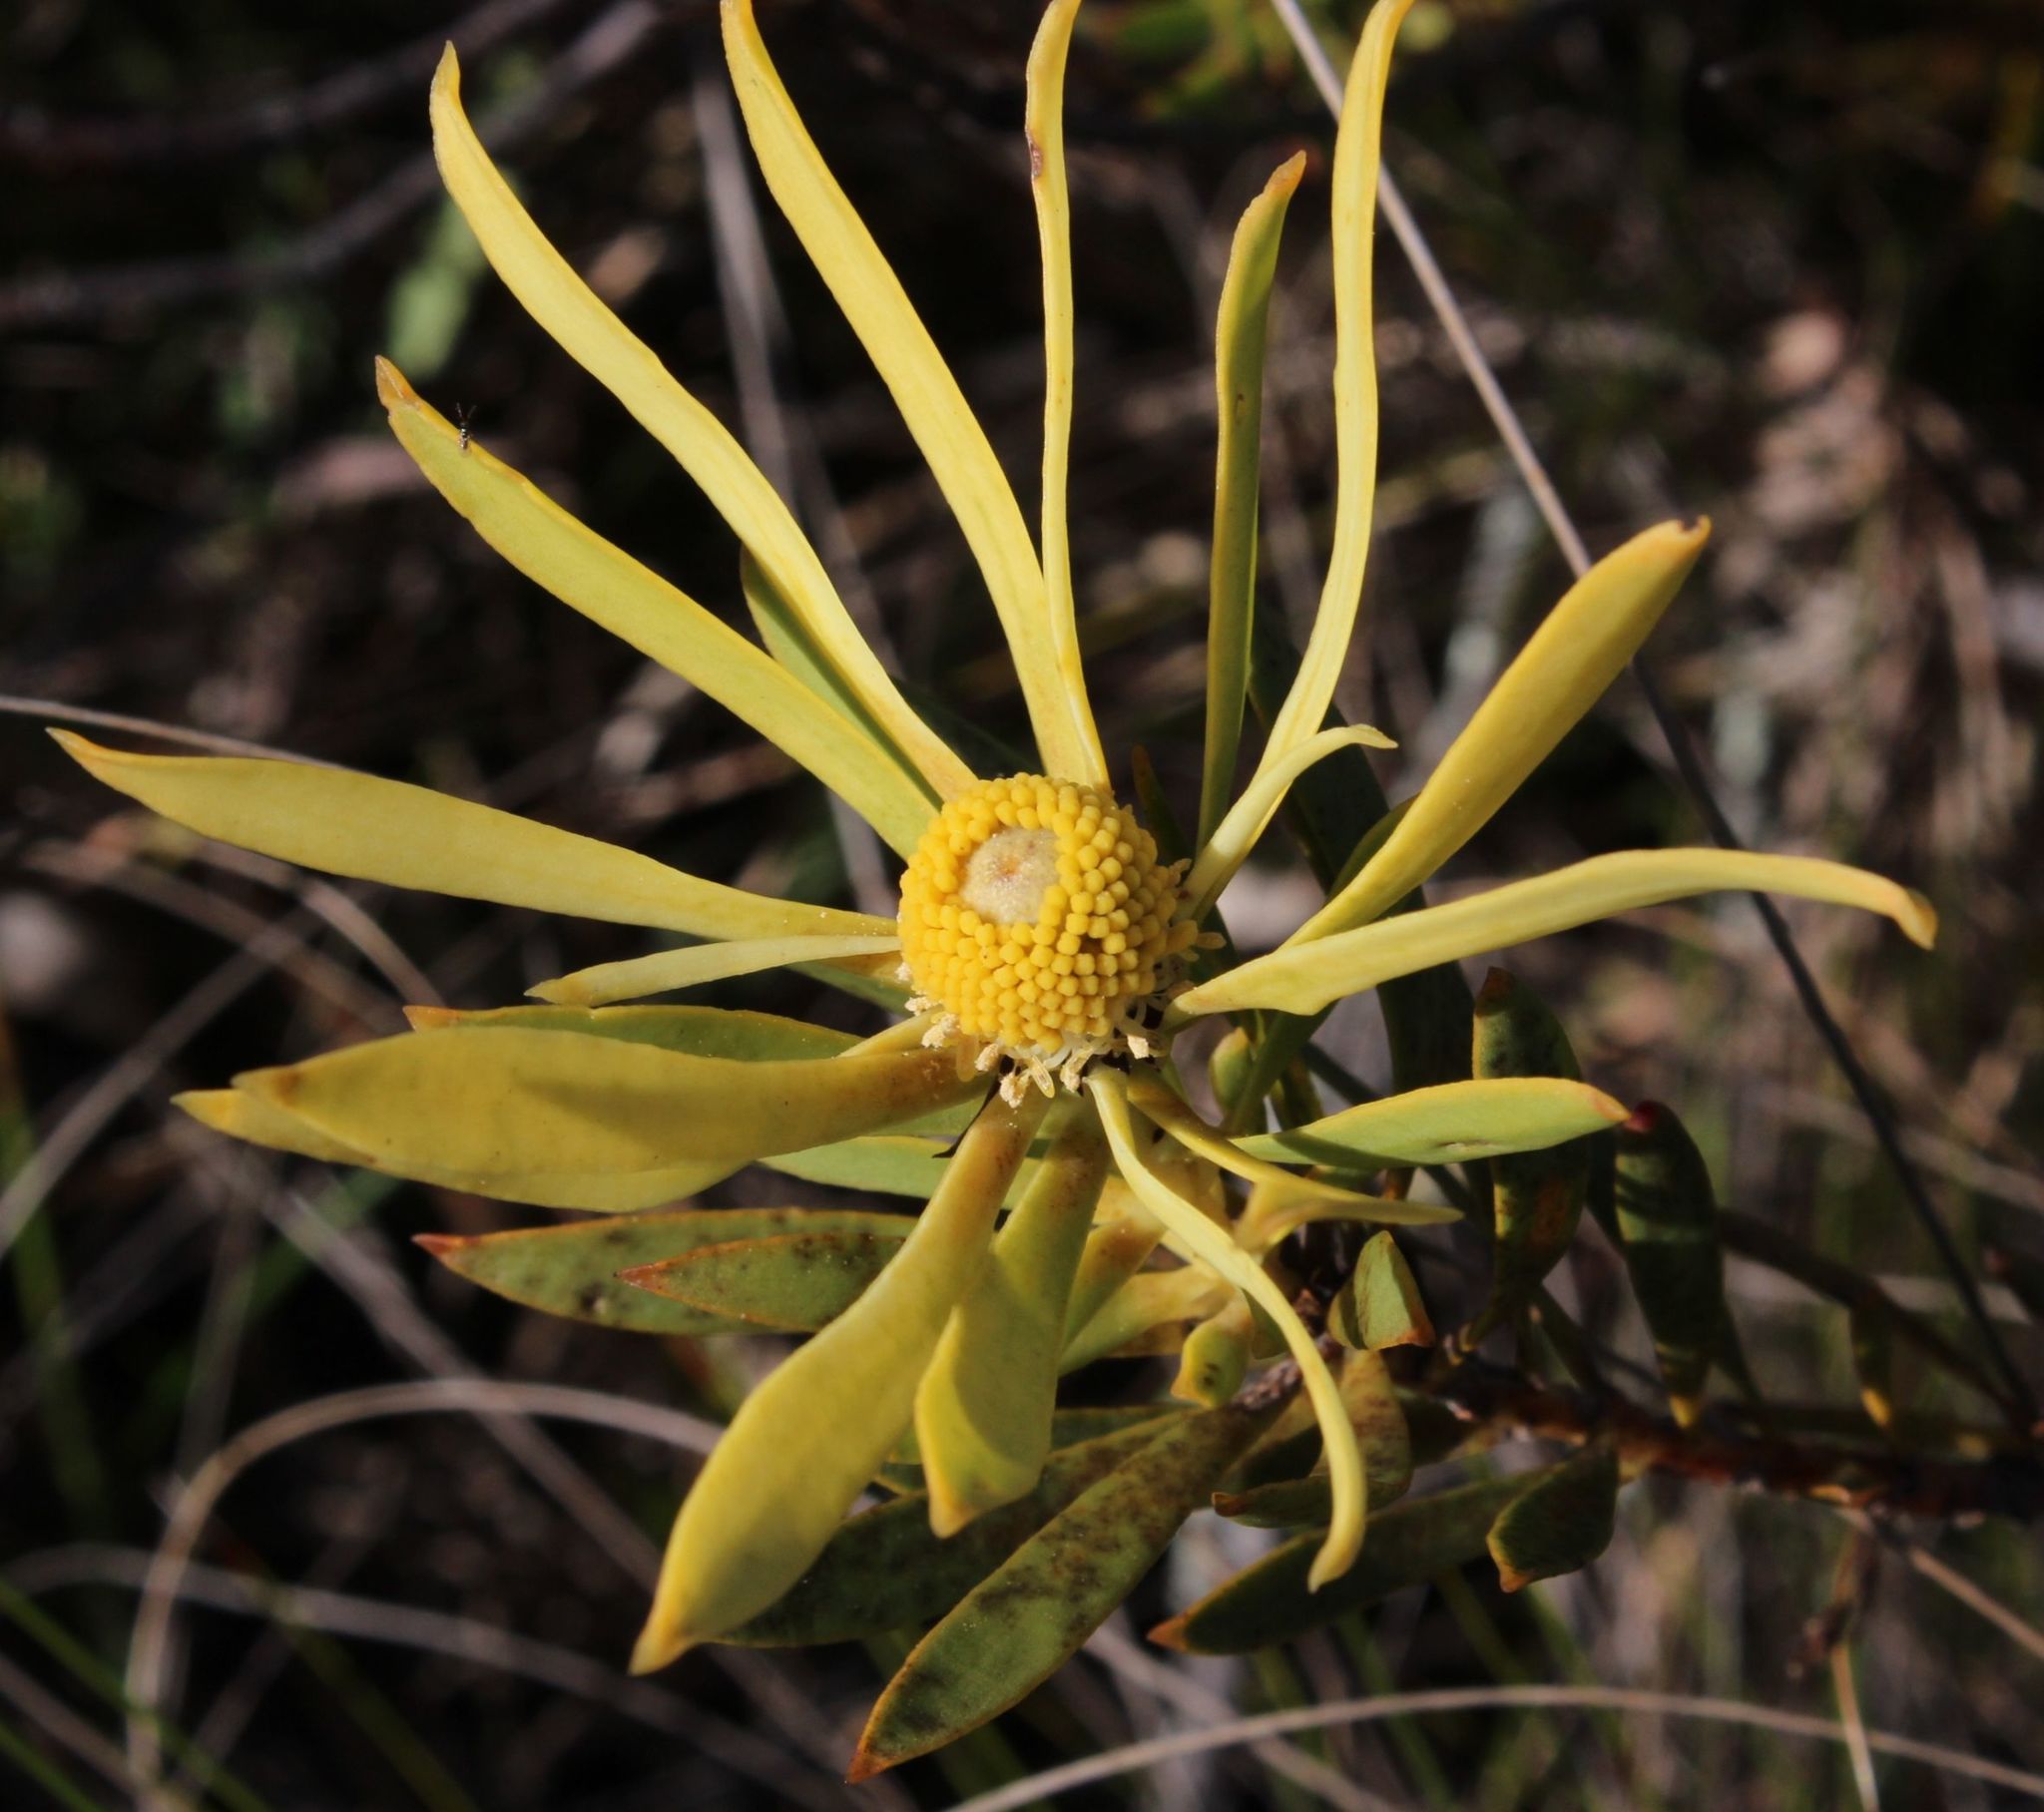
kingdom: Plantae
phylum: Tracheophyta
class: Magnoliopsida
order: Proteales
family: Proteaceae
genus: Leucadendron
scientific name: Leucadendron salignum
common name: Common sunshine conebush
